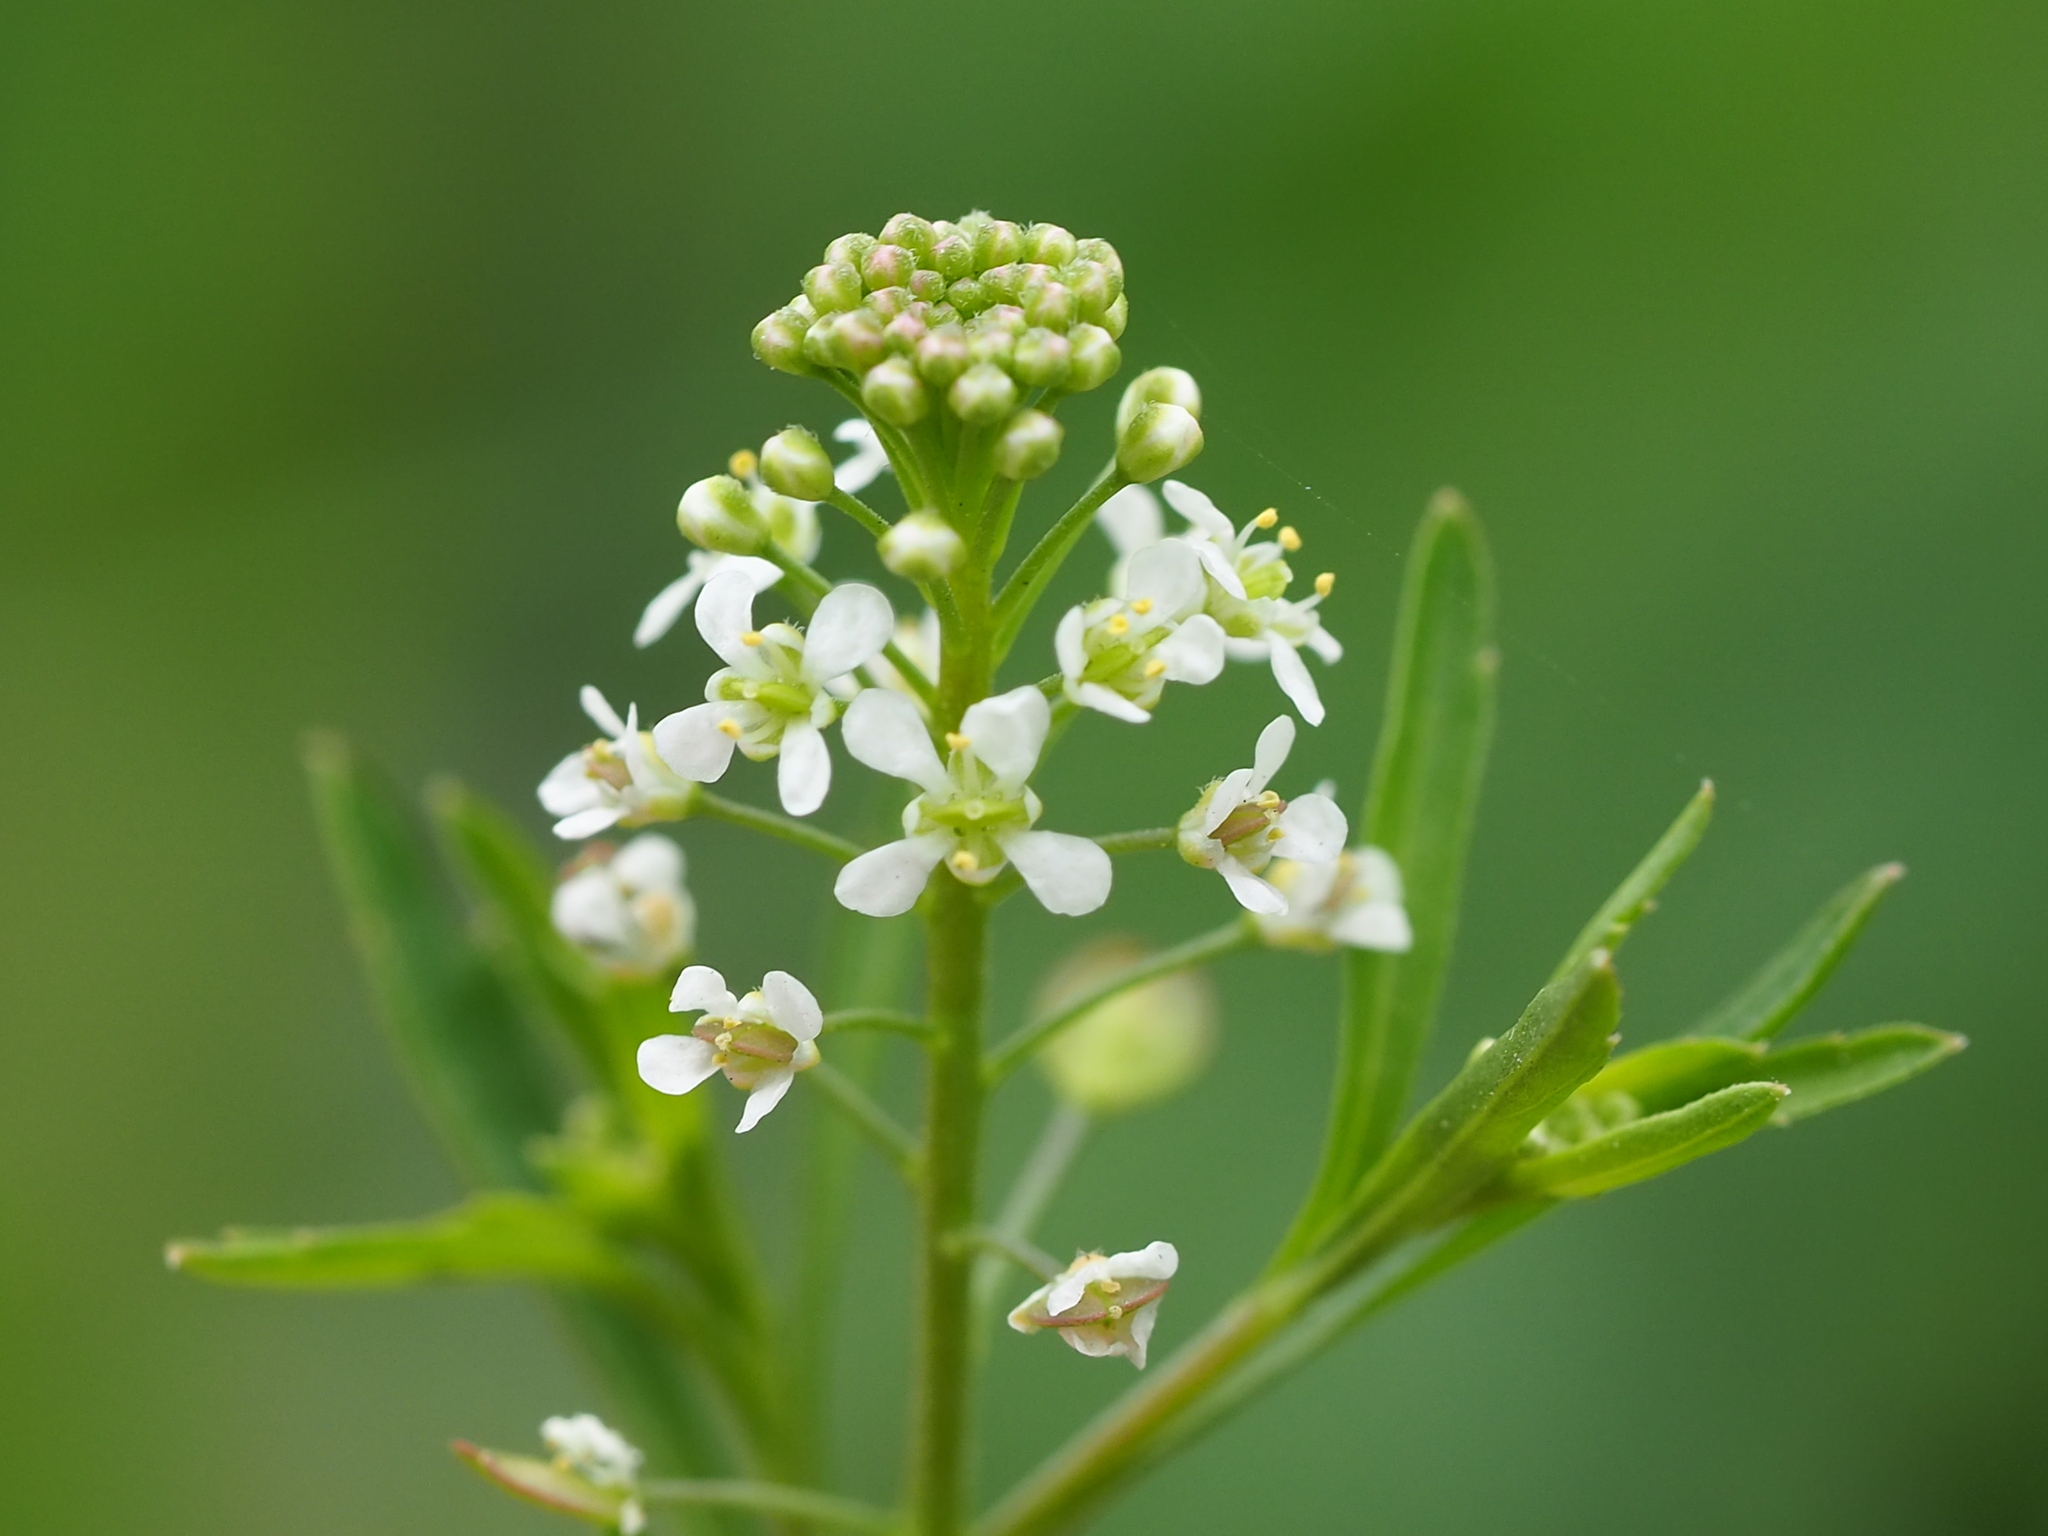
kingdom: Plantae
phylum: Tracheophyta
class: Magnoliopsida
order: Brassicales
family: Brassicaceae
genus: Lepidium
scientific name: Lepidium virginicum
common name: Least pepperwort
